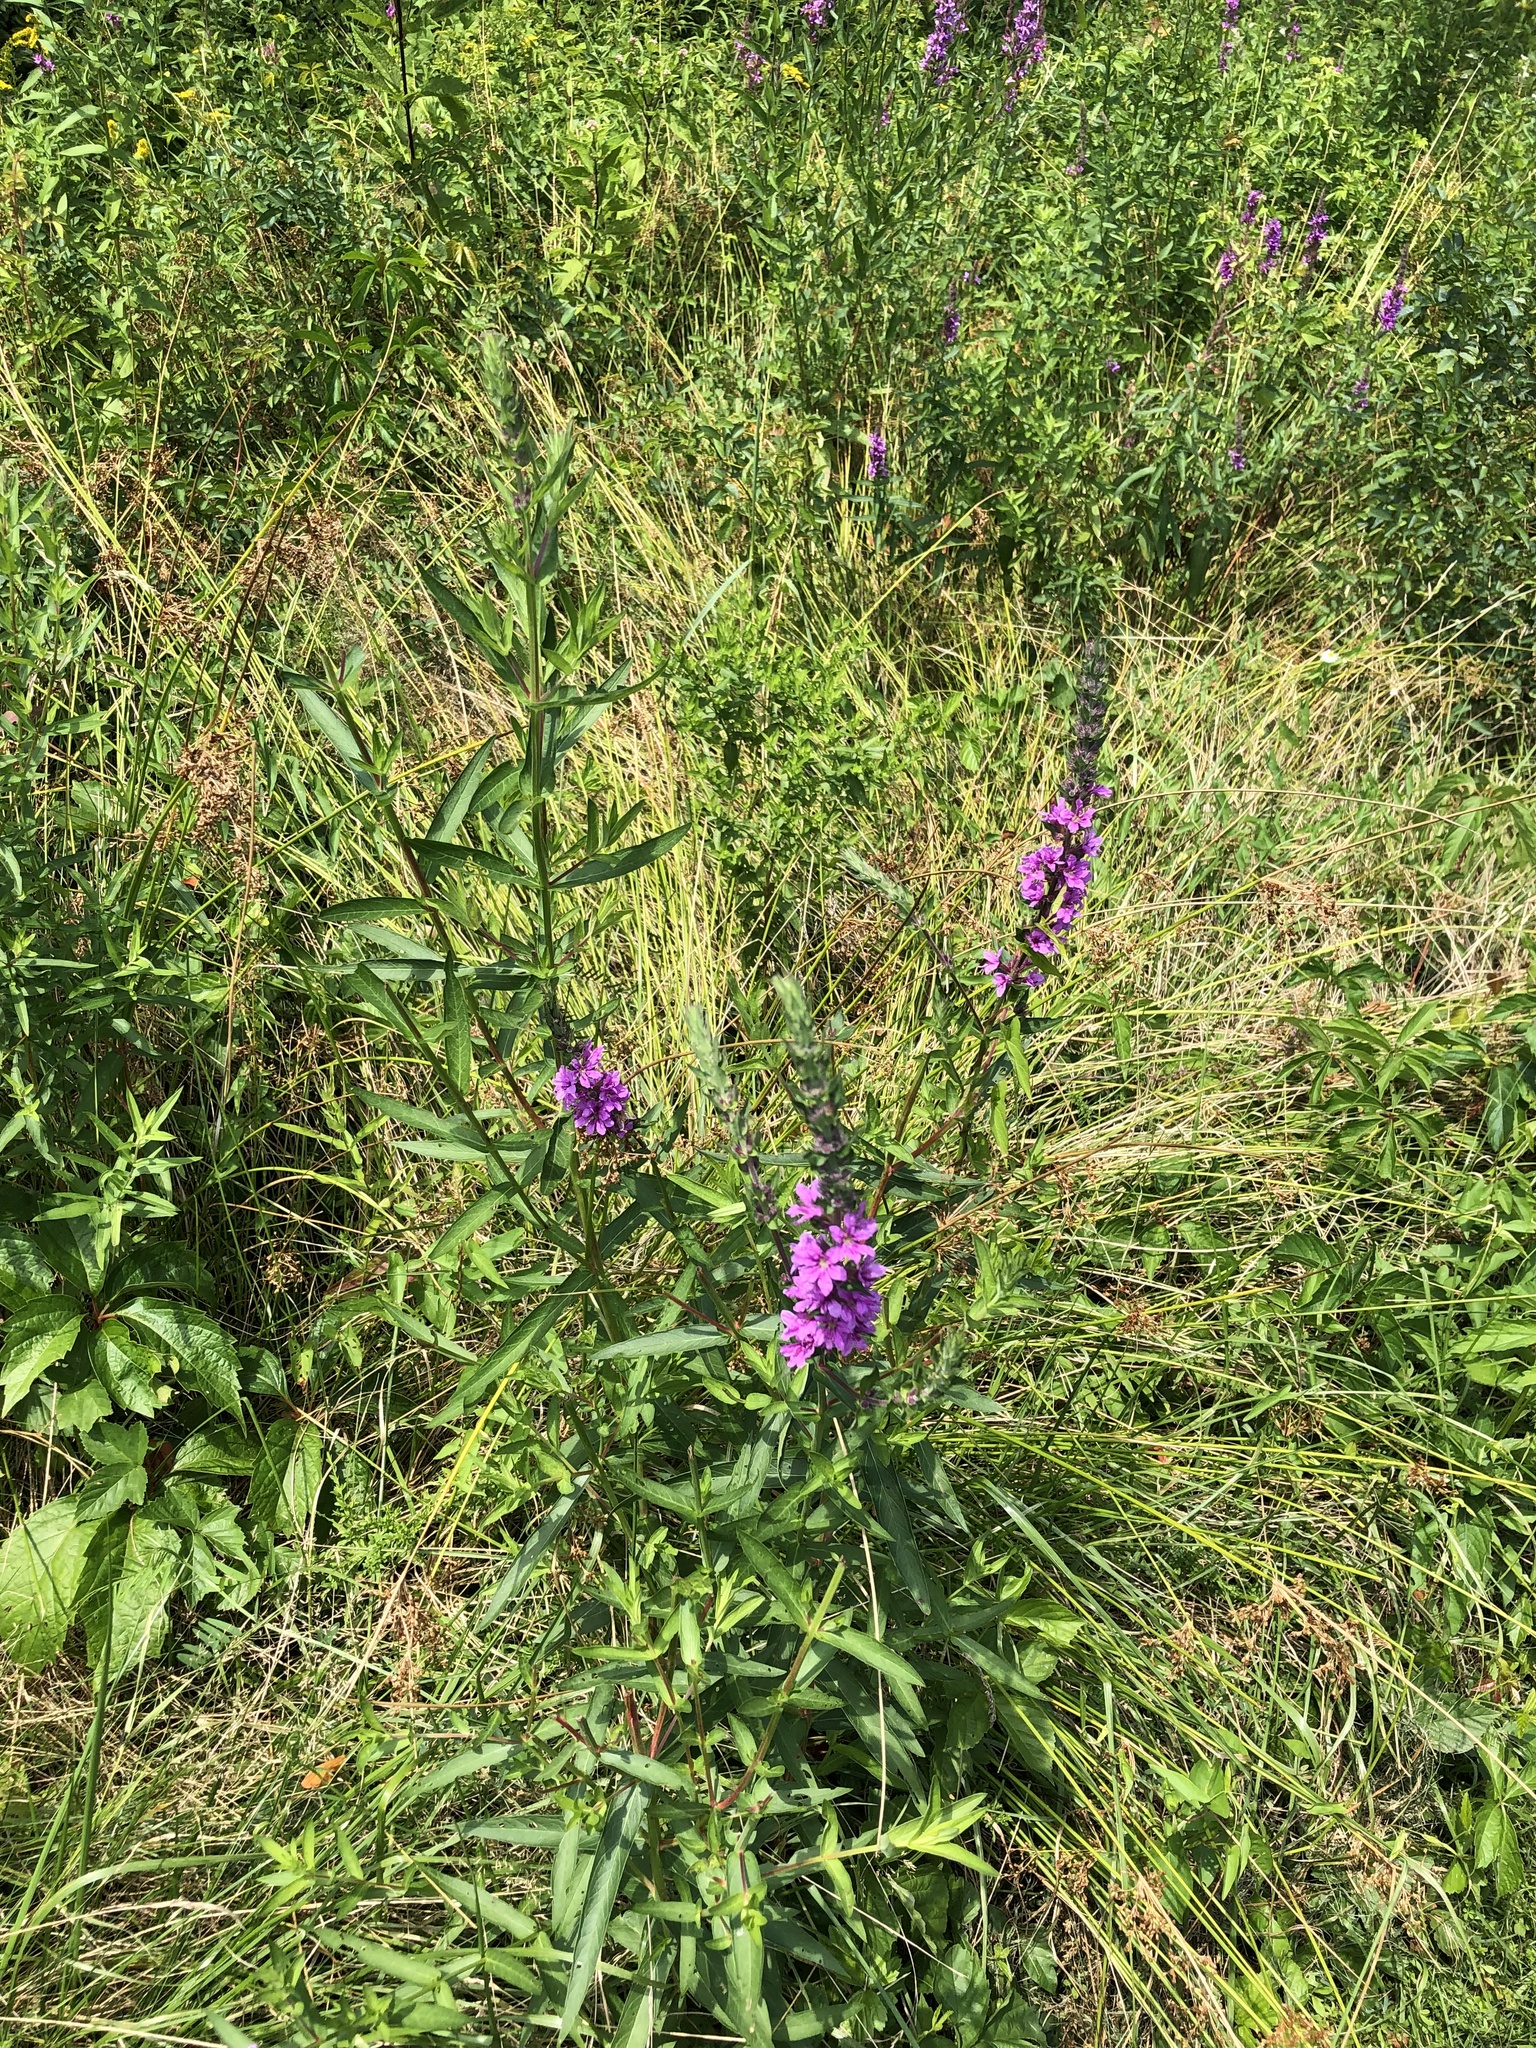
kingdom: Plantae
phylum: Tracheophyta
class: Magnoliopsida
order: Myrtales
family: Lythraceae
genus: Lythrum
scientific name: Lythrum salicaria
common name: Purple loosestrife
